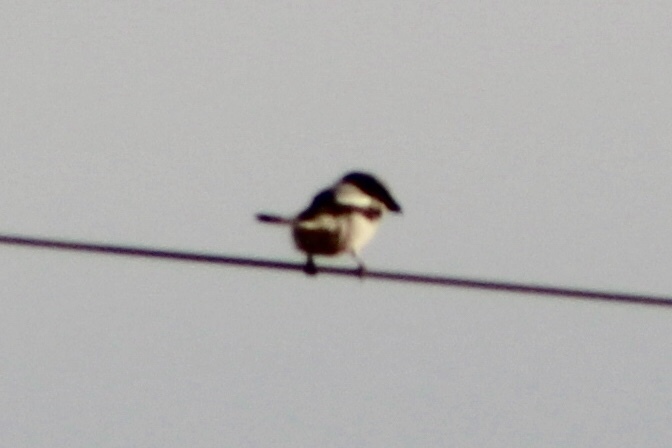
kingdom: Animalia
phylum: Chordata
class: Aves
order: Passeriformes
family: Laniidae
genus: Lanius
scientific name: Lanius ludovicianus
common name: Loggerhead shrike
